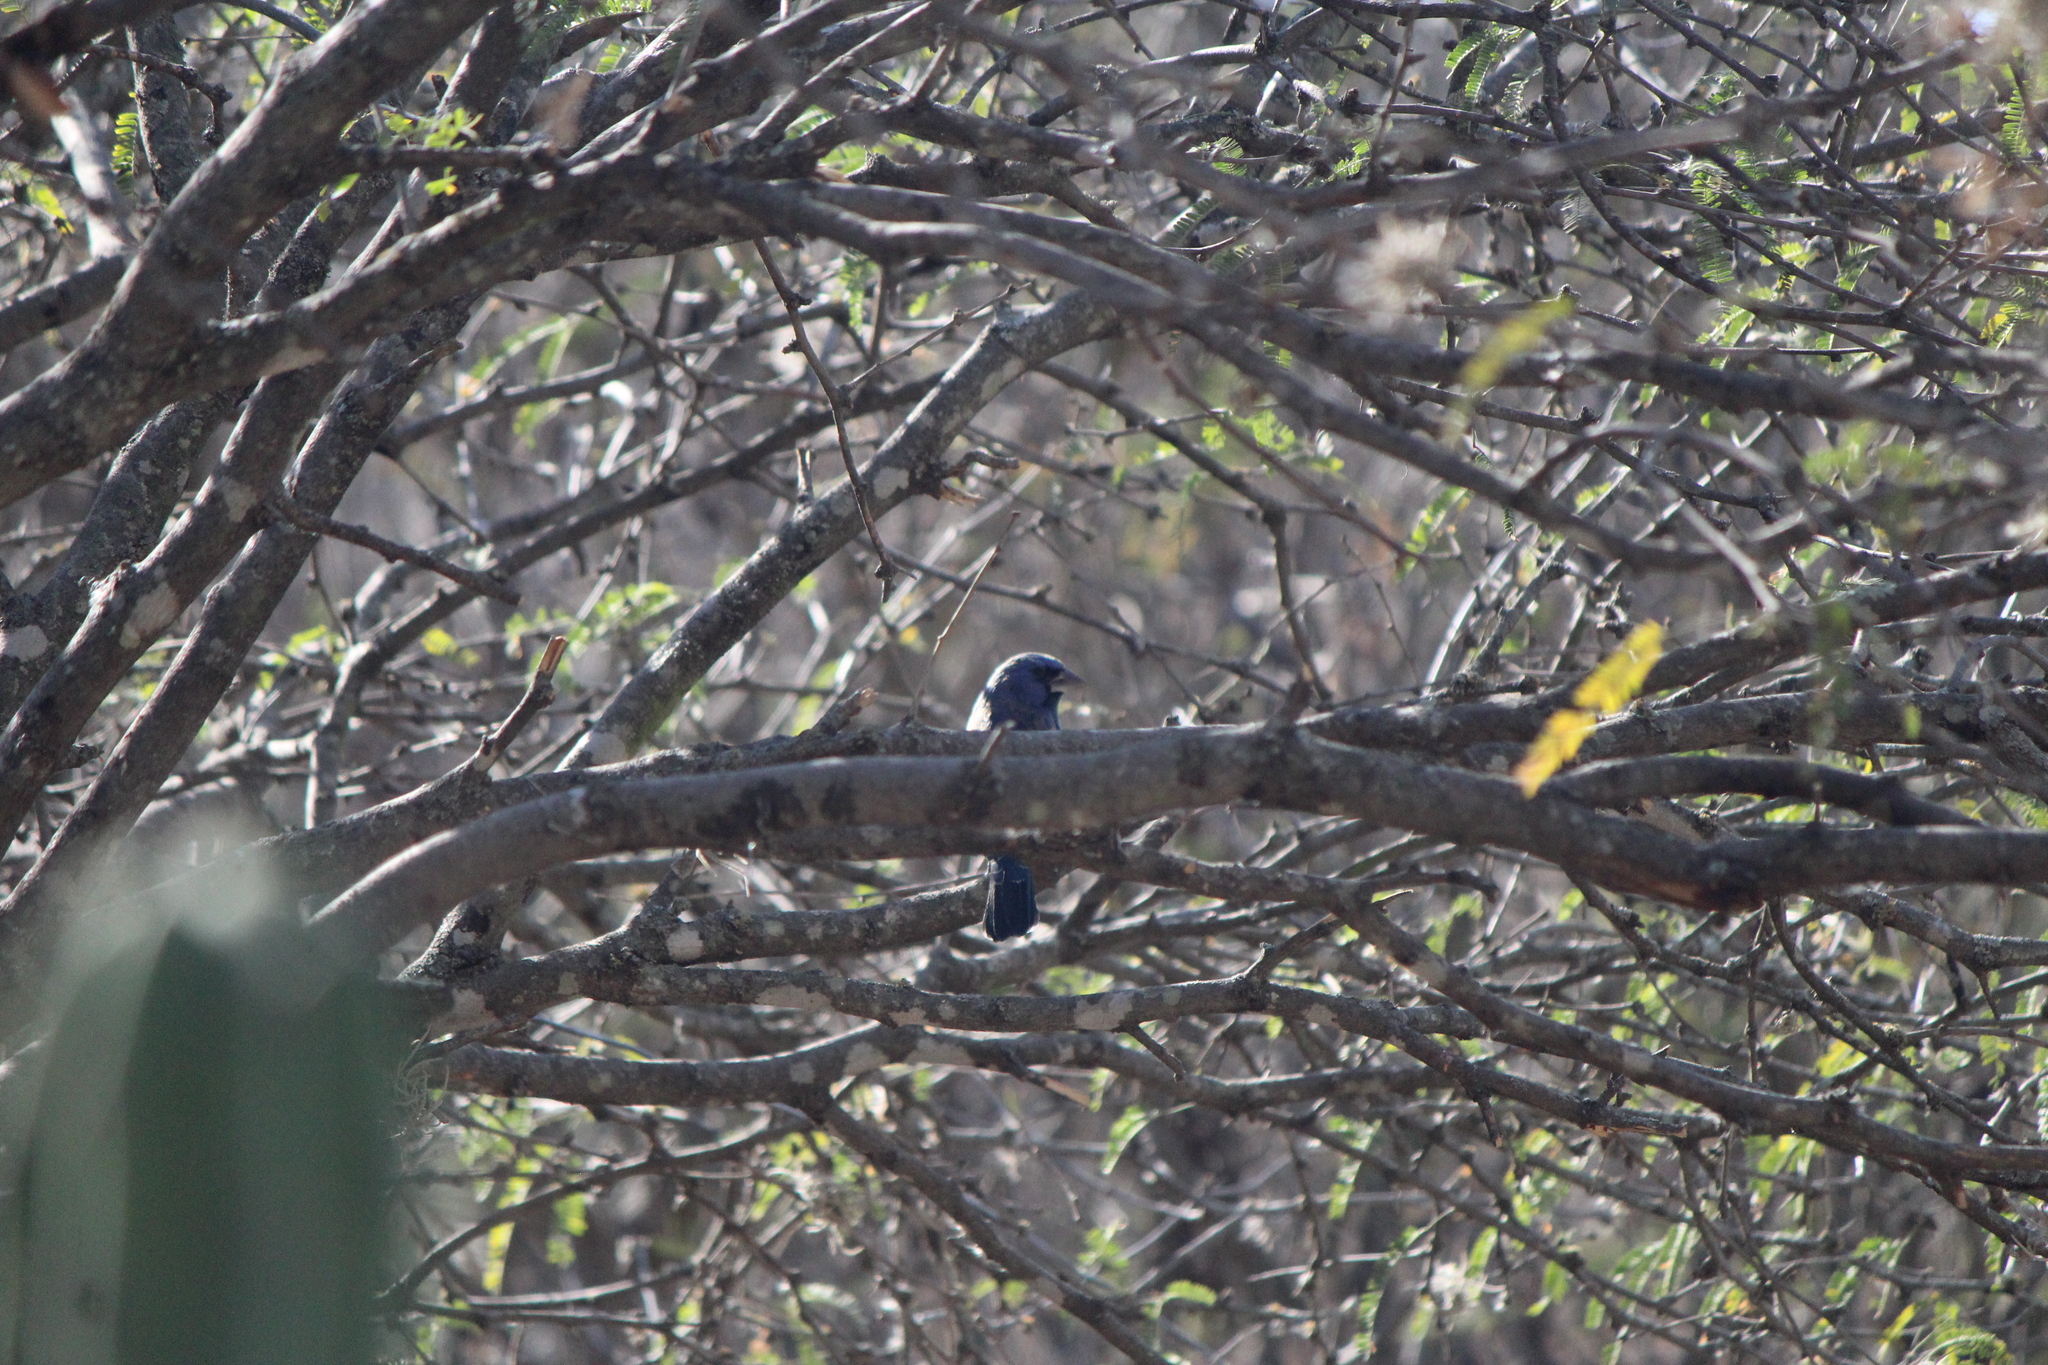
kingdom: Animalia
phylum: Chordata
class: Aves
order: Passeriformes
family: Cardinalidae
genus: Passerina
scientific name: Passerina caerulea
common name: Blue grosbeak
